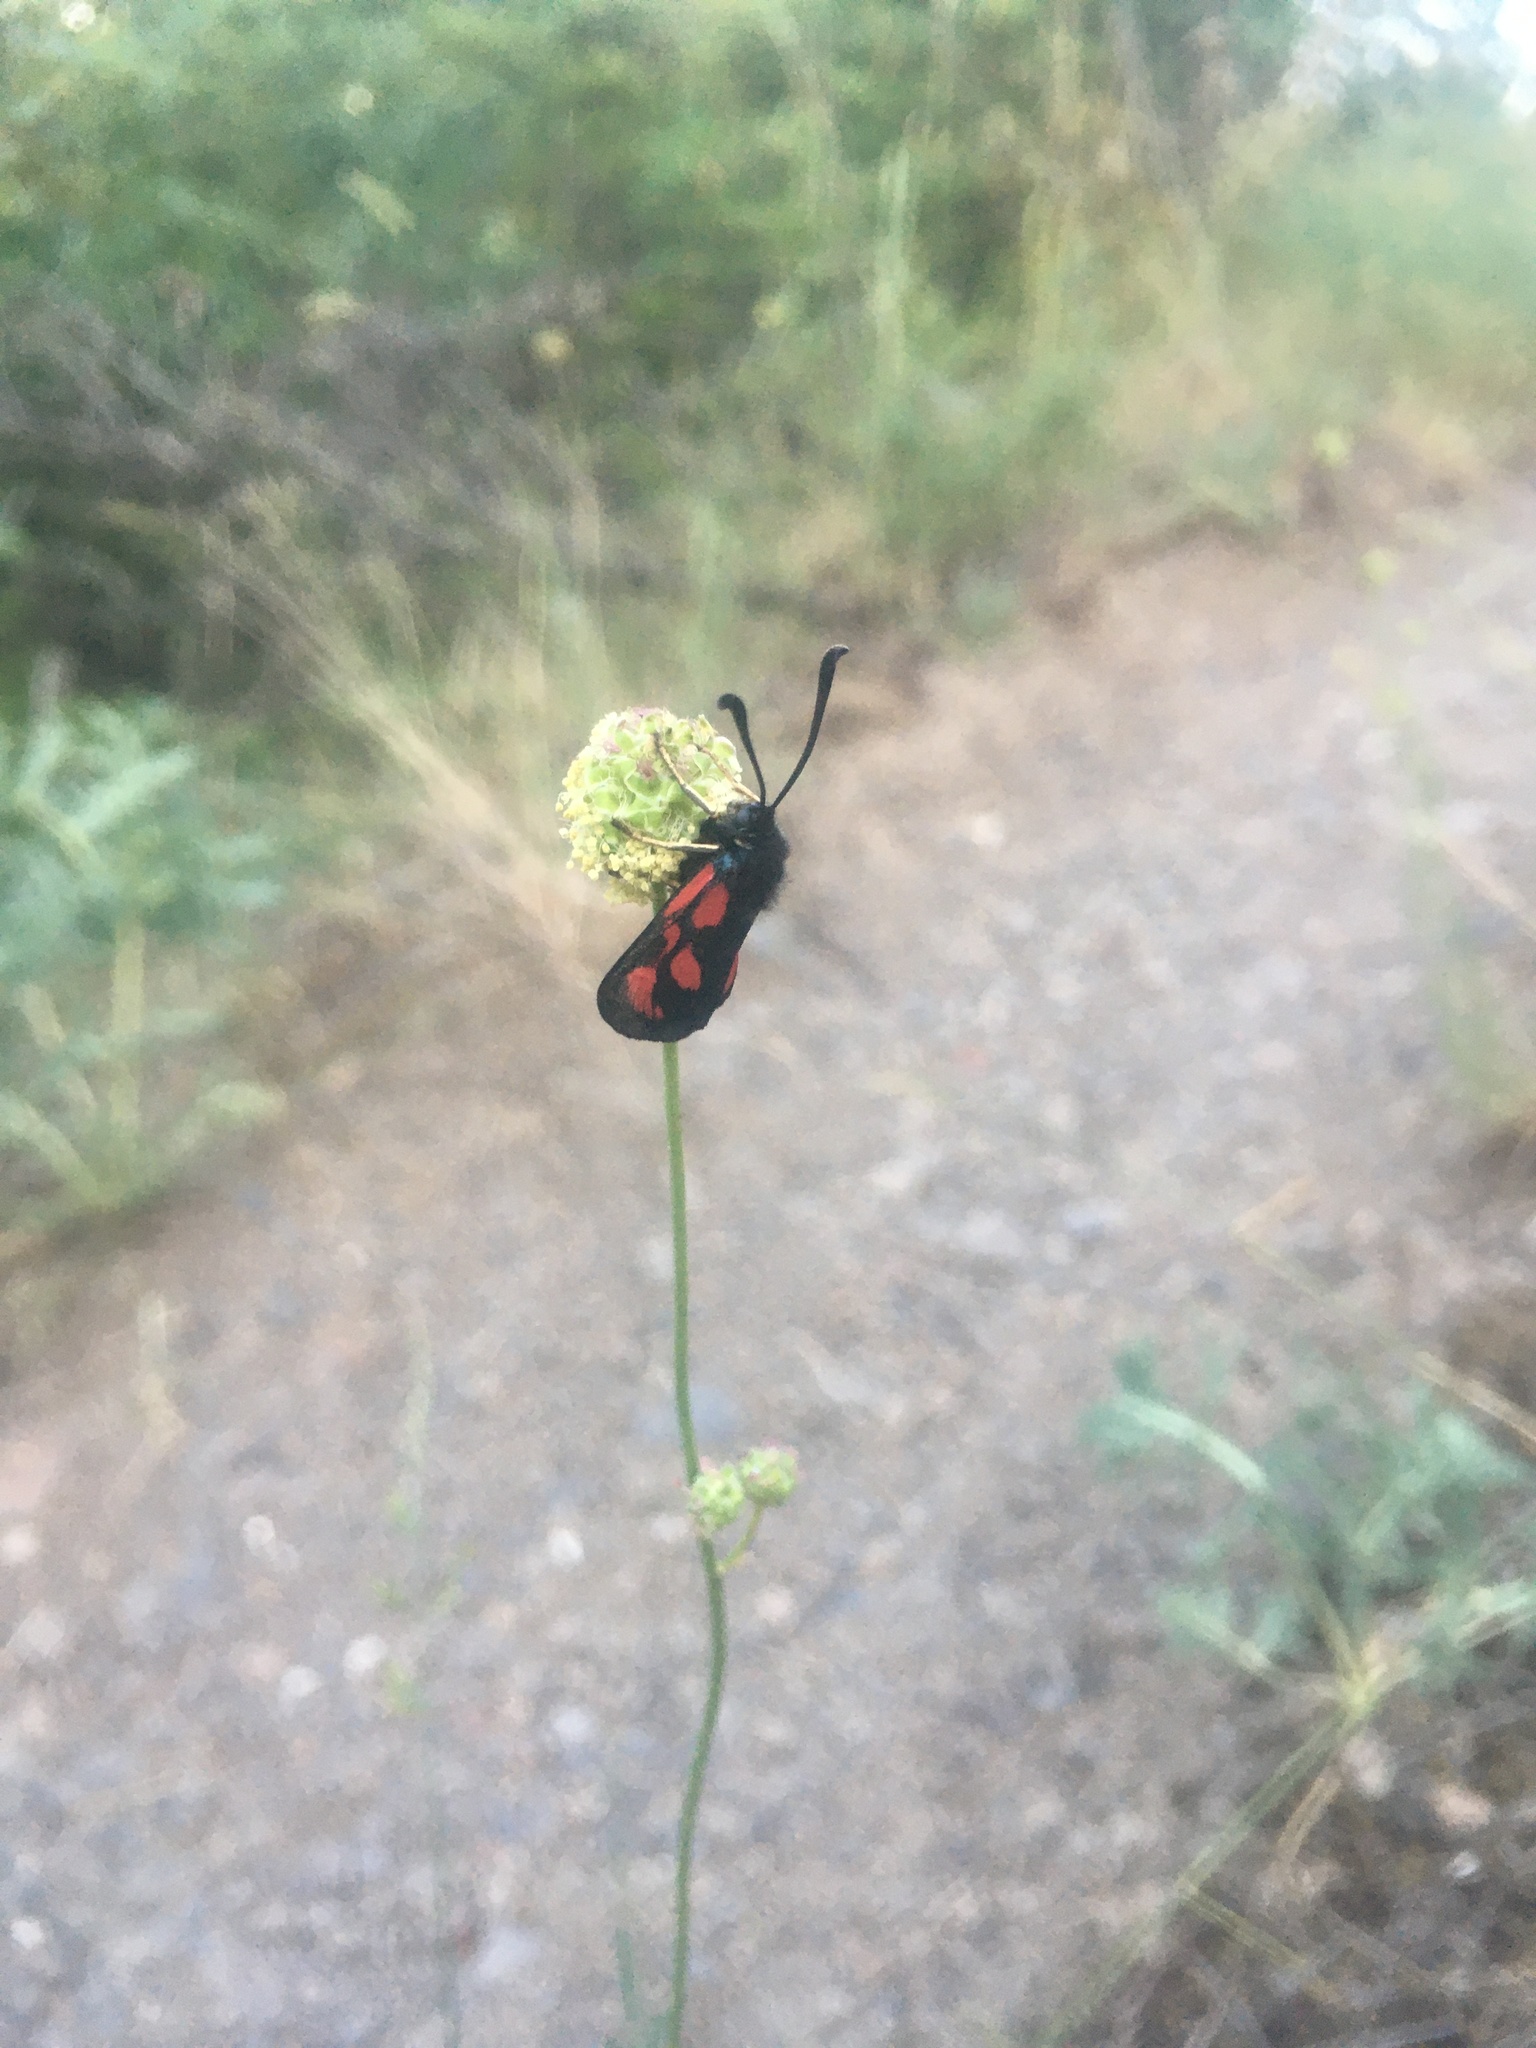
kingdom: Animalia
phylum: Arthropoda
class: Insecta
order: Lepidoptera
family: Zygaenidae
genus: Zygaena
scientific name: Zygaena loti
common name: Slender scotch burnet
